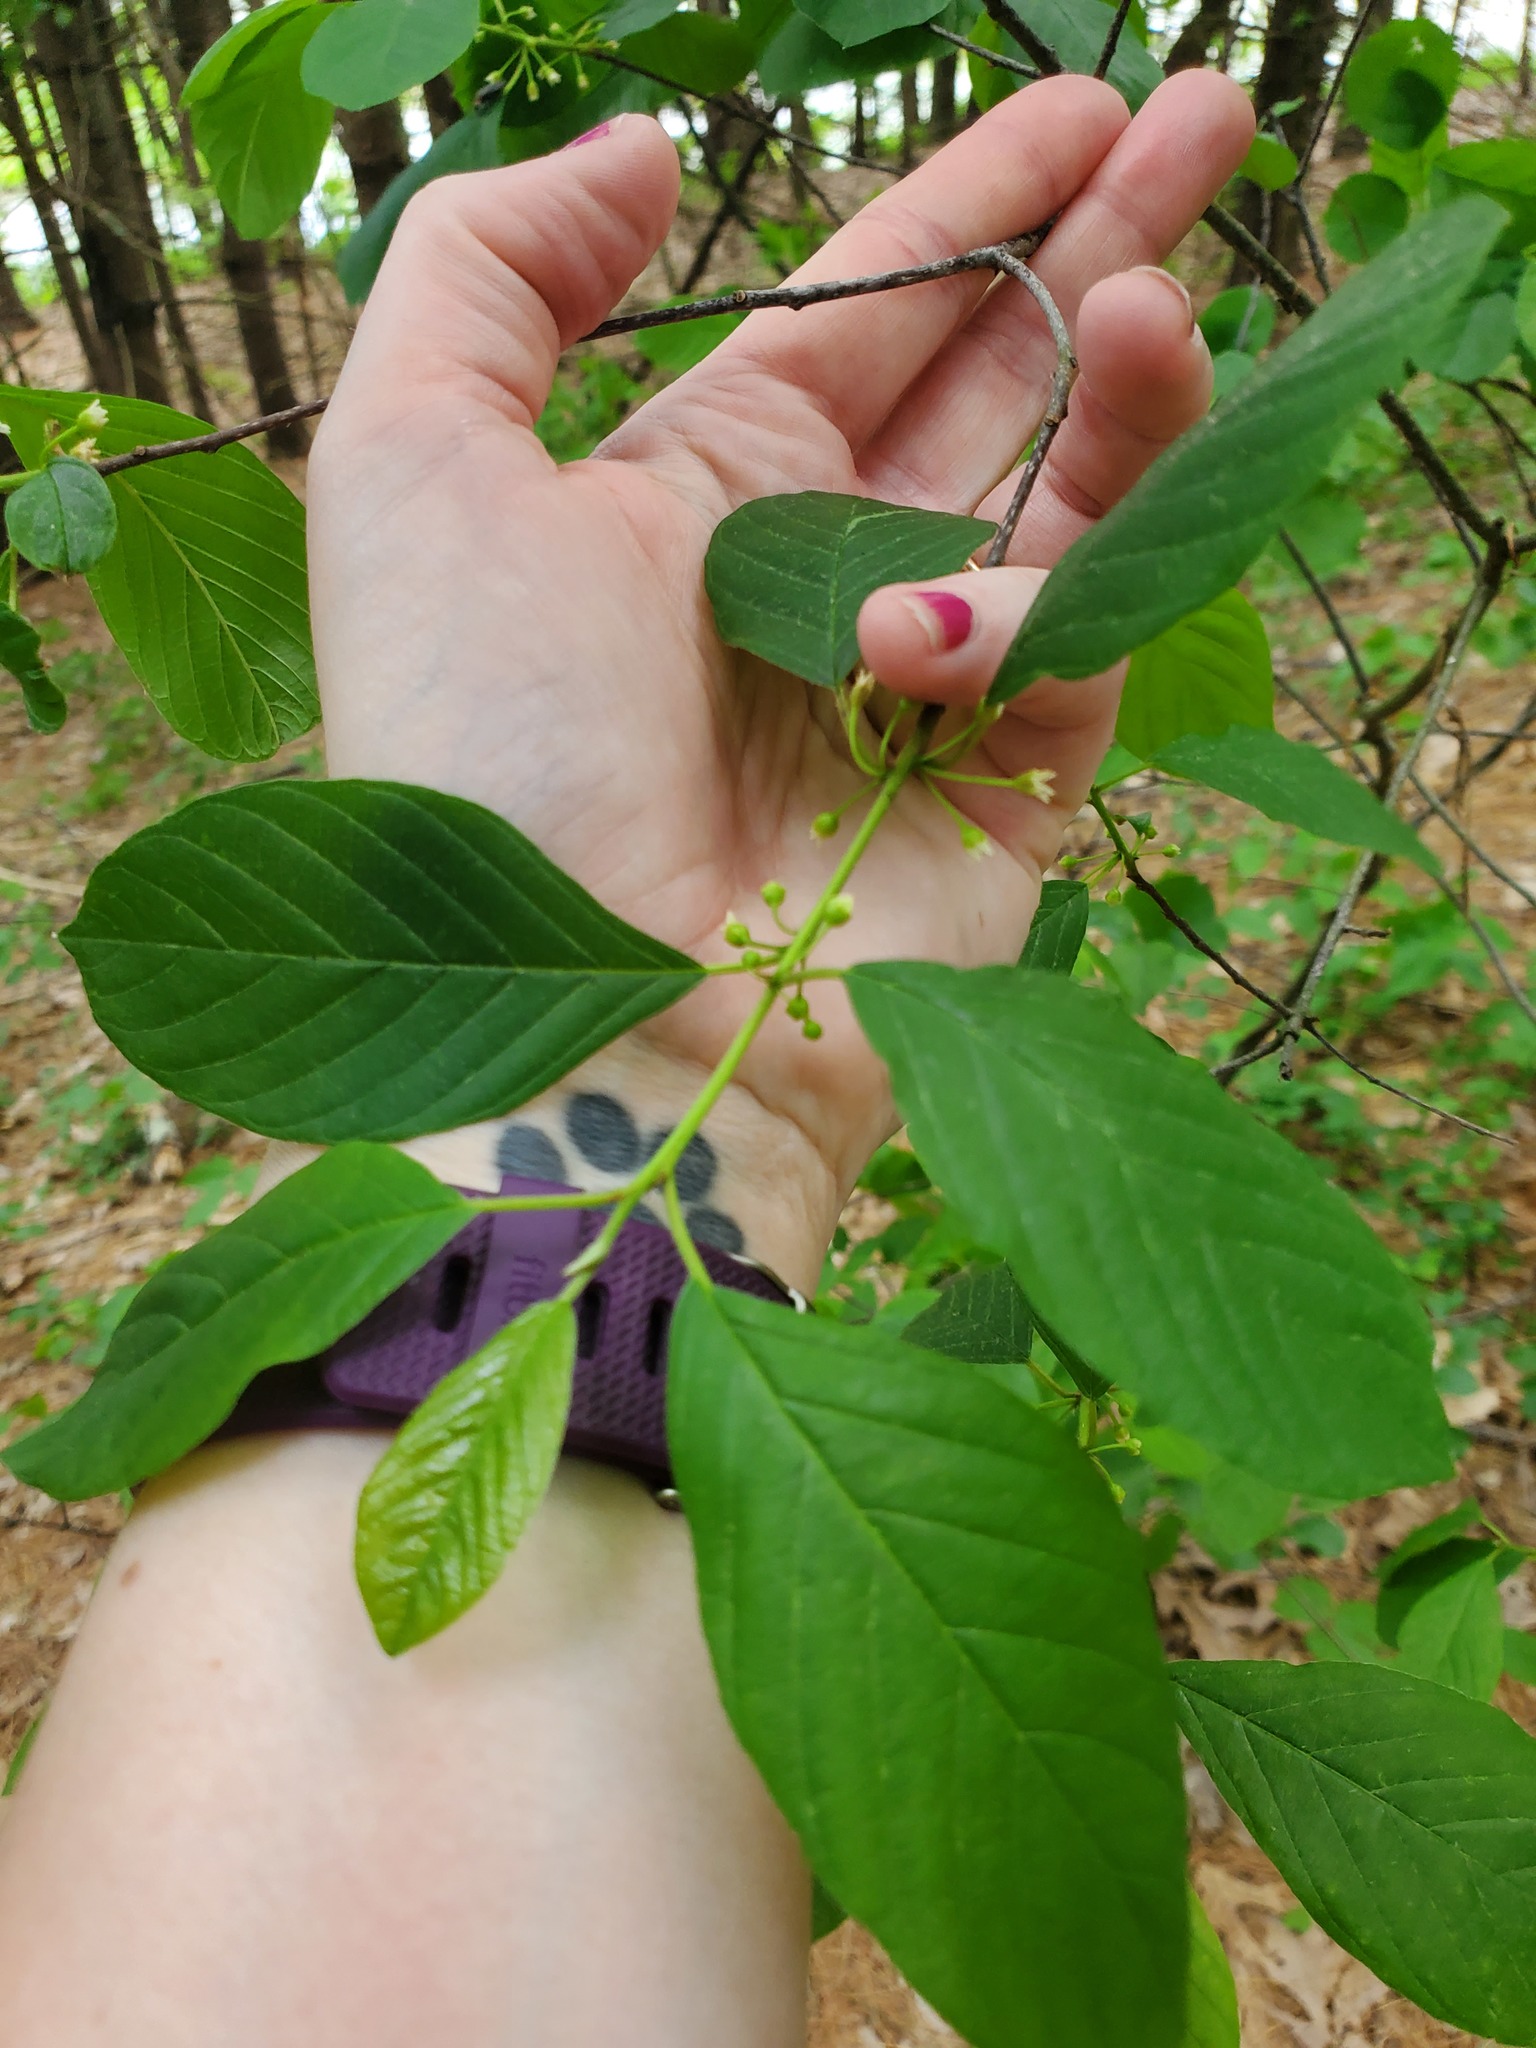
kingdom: Plantae
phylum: Tracheophyta
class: Magnoliopsida
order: Rosales
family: Rhamnaceae
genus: Frangula
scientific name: Frangula alnus
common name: Alder buckthorn
